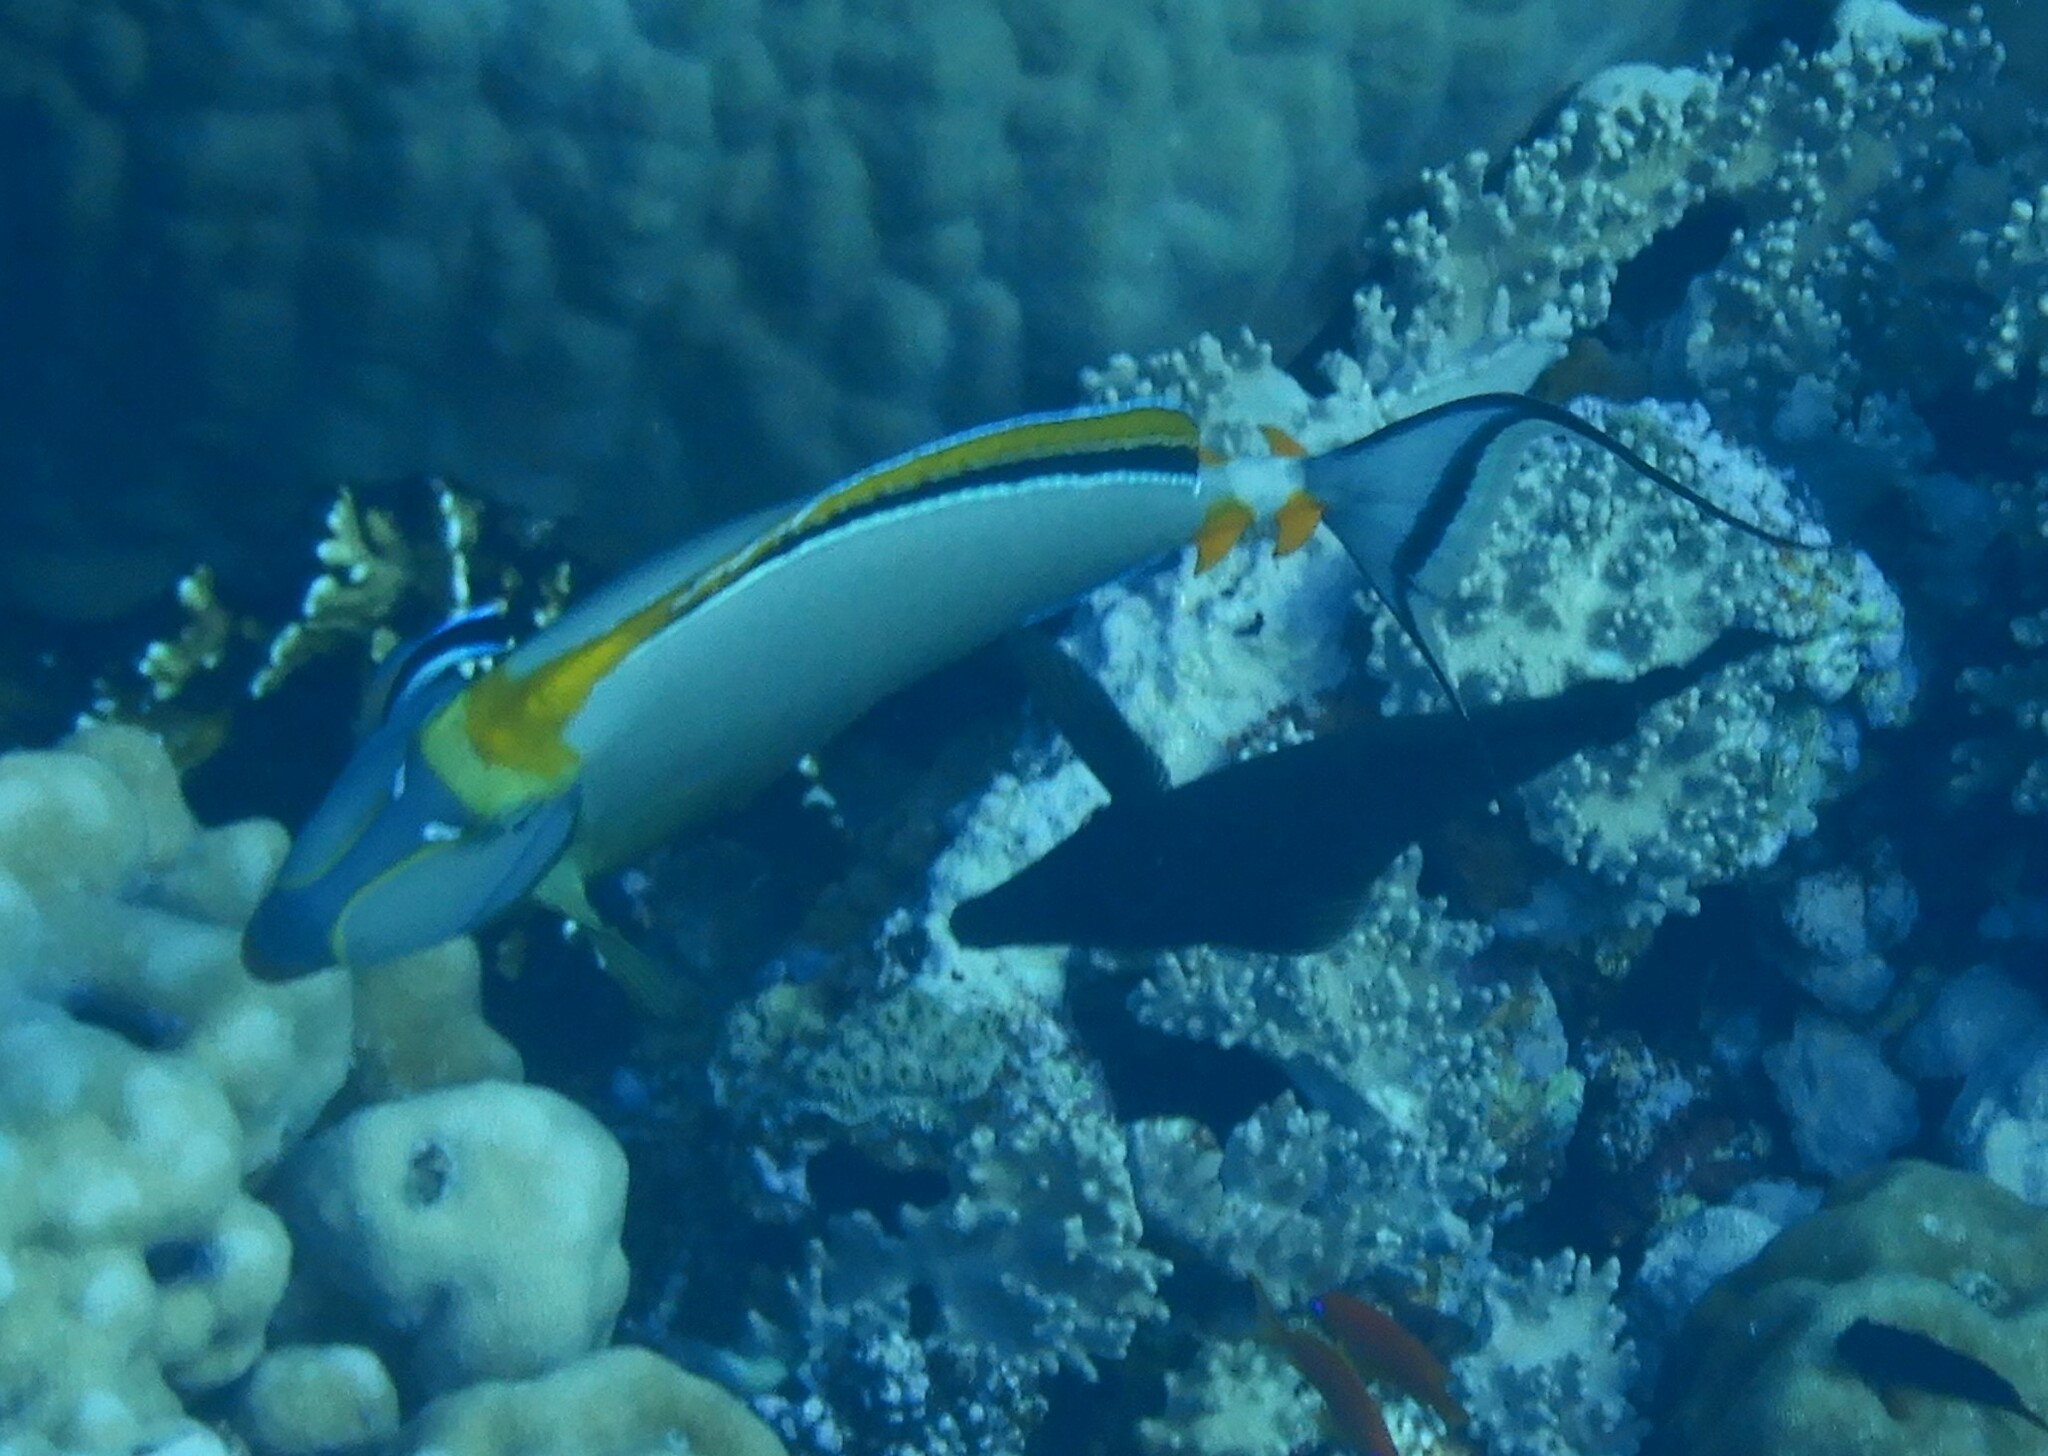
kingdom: Animalia
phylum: Chordata
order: Perciformes
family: Acanthuridae
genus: Naso
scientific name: Naso elegans
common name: Orangespine unicornfish
